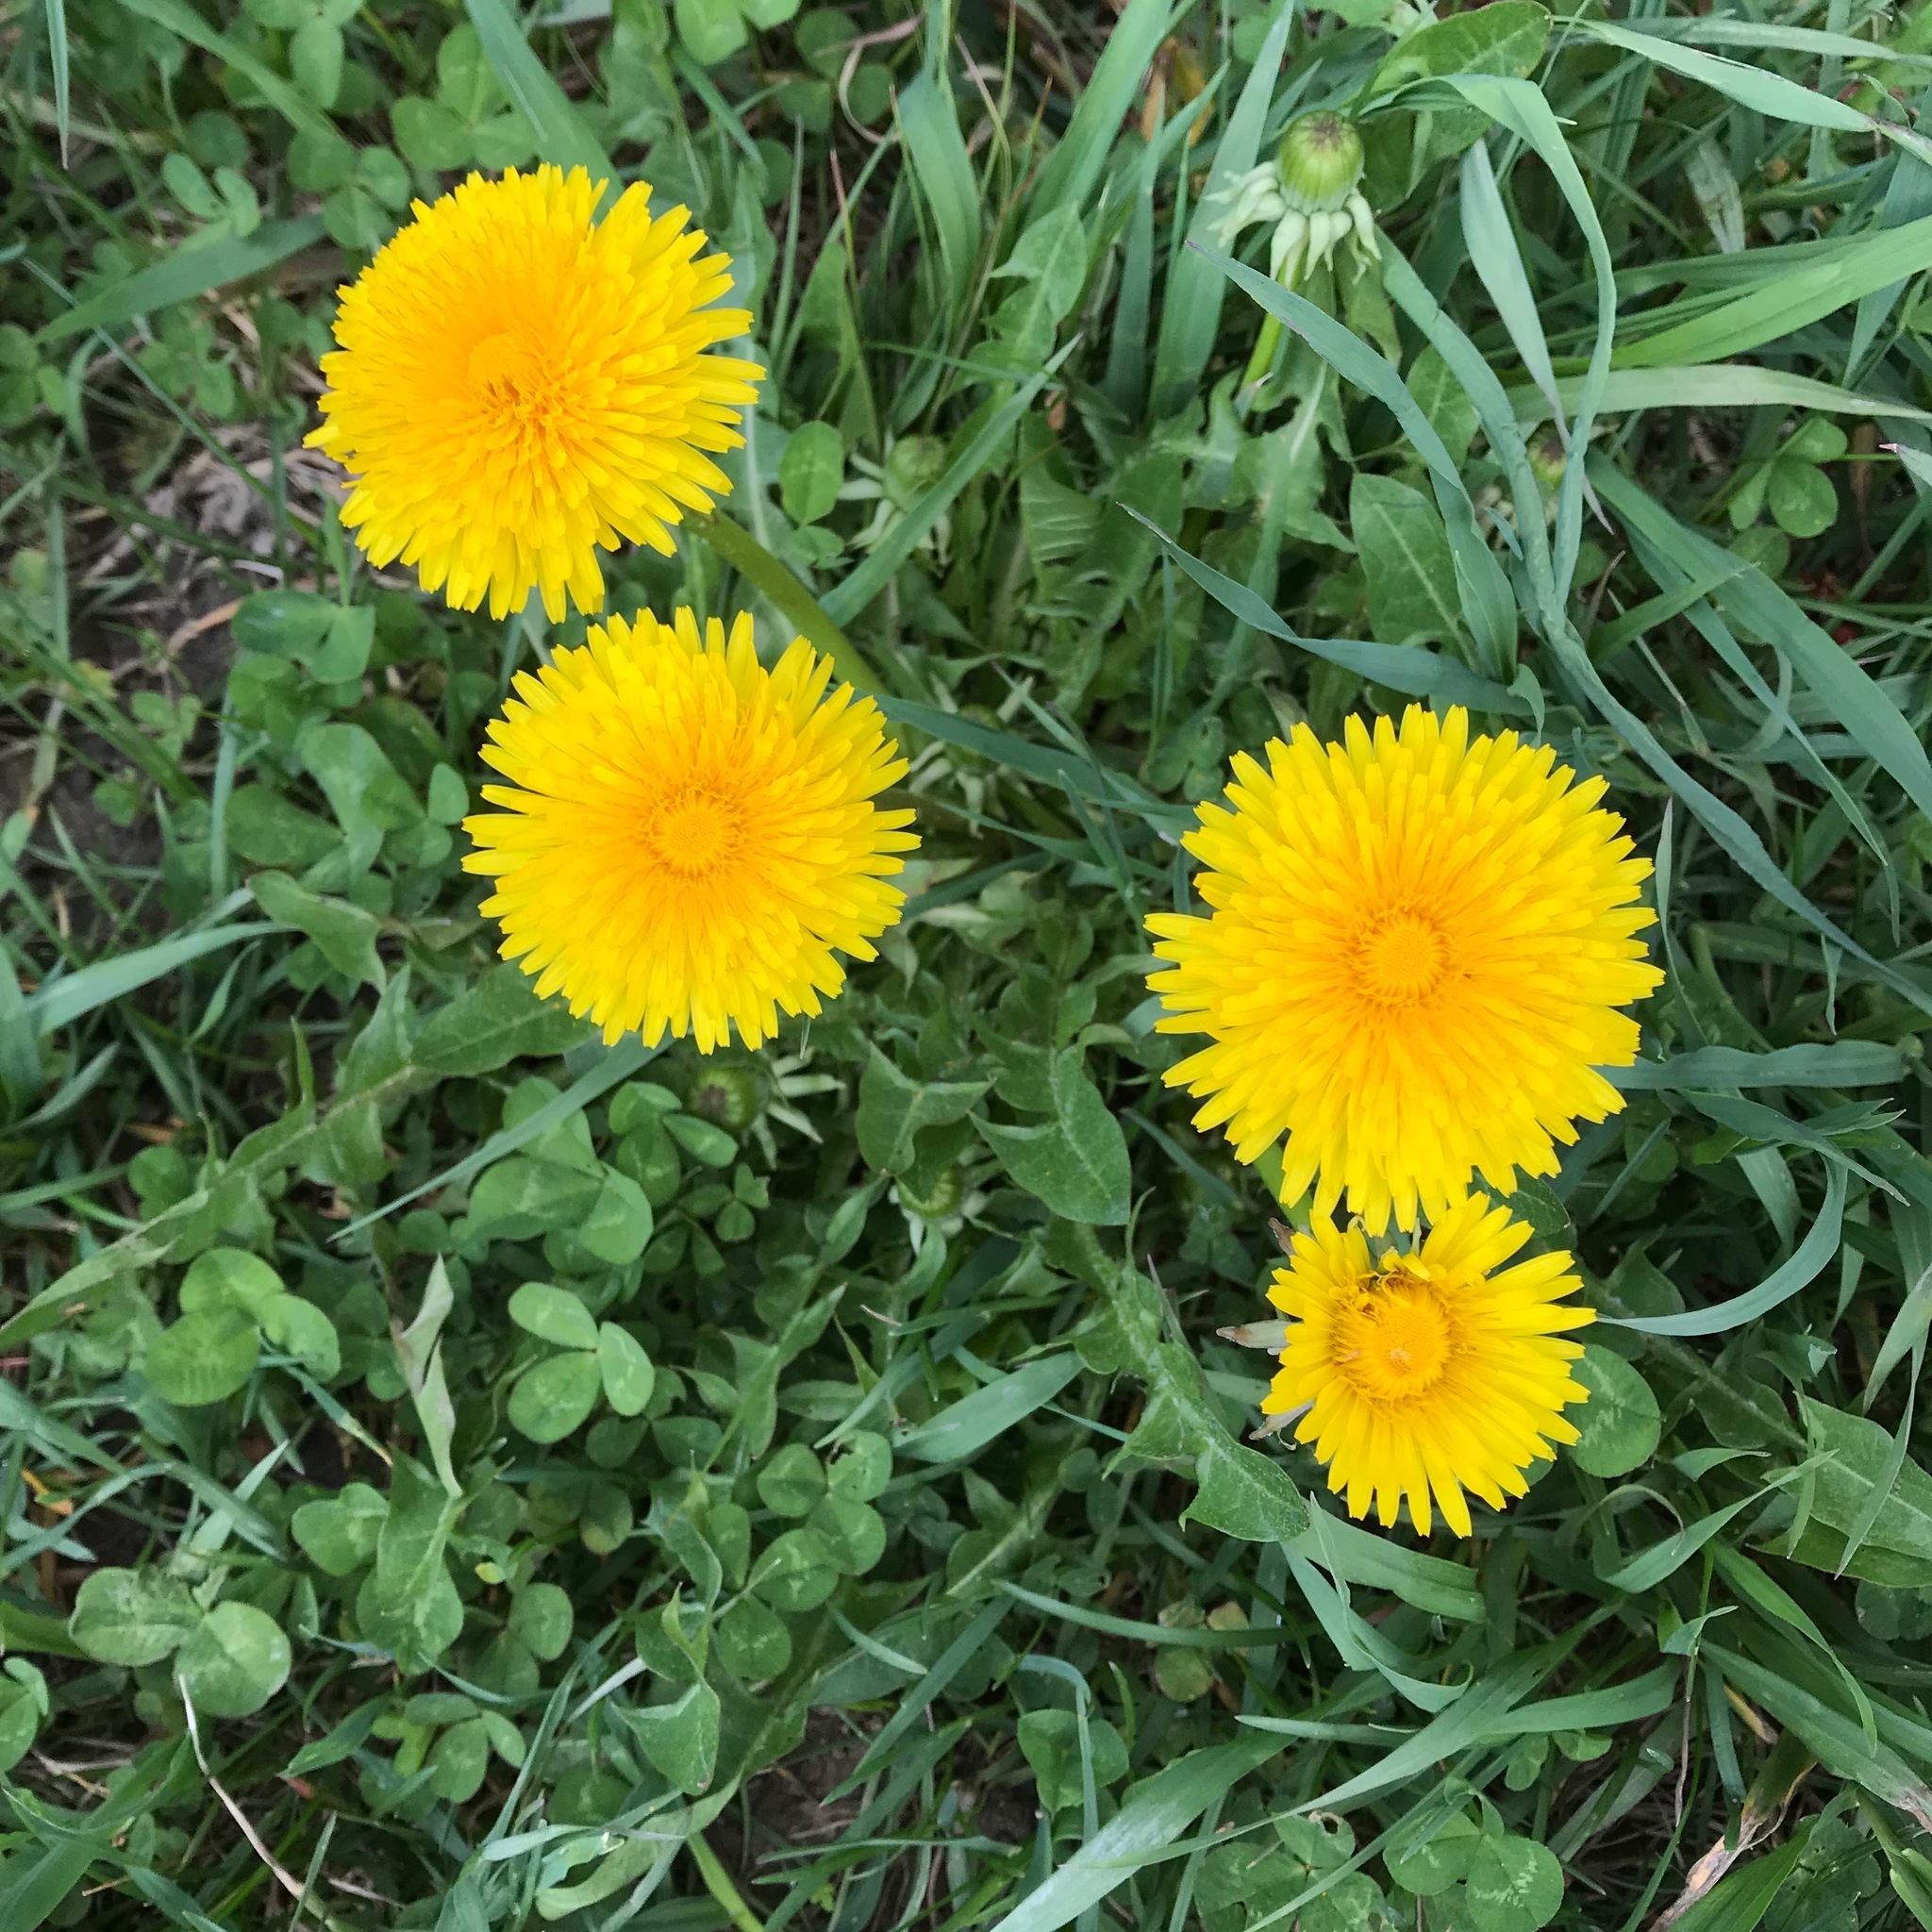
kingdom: Plantae
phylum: Tracheophyta
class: Magnoliopsida
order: Asterales
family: Asteraceae
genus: Taraxacum
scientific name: Taraxacum officinale
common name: Common dandelion
